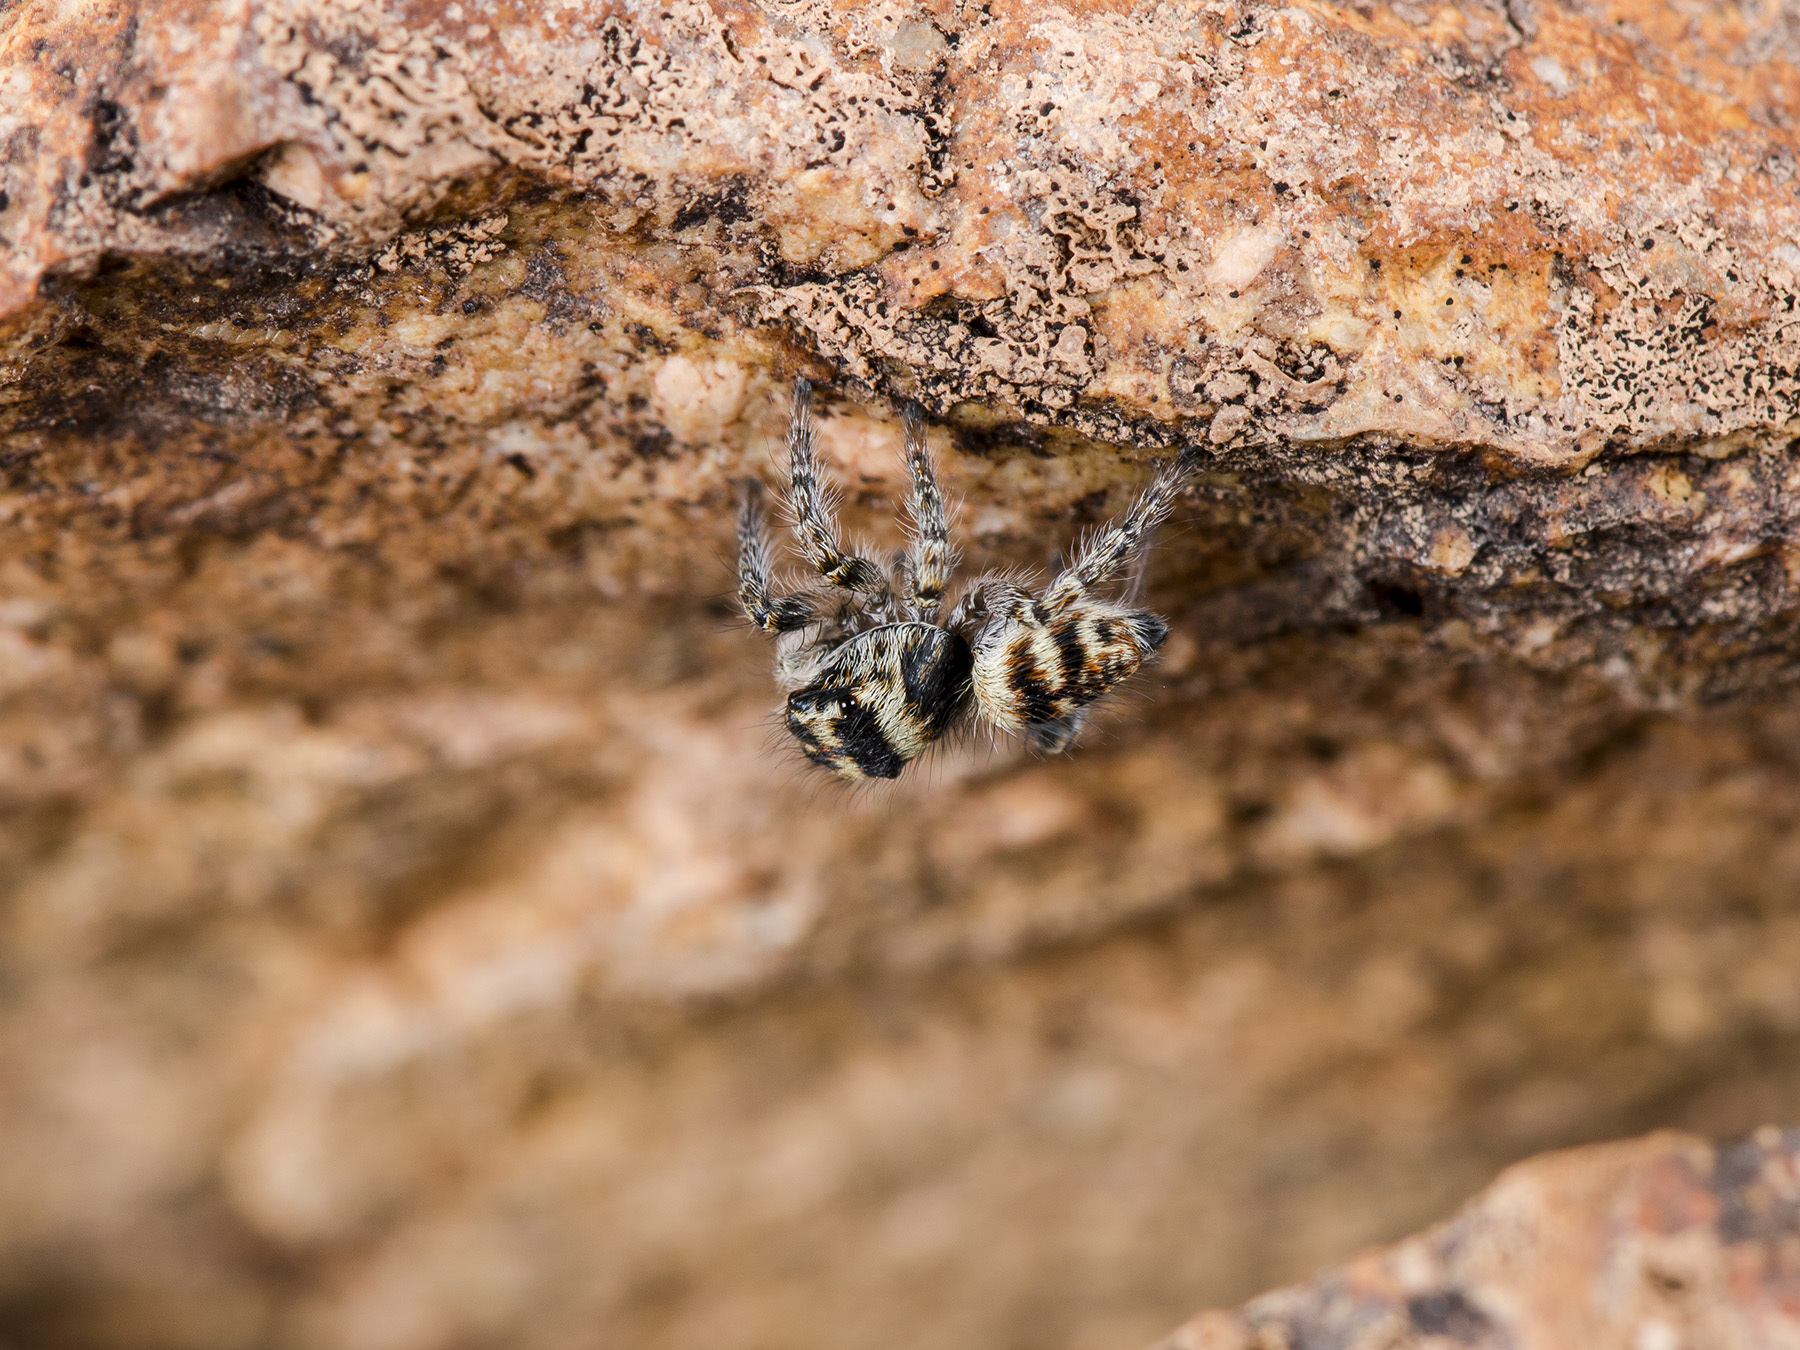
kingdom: Animalia
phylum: Arthropoda
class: Arachnida
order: Araneae
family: Salticidae
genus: Philaeus
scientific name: Philaeus chrysops
